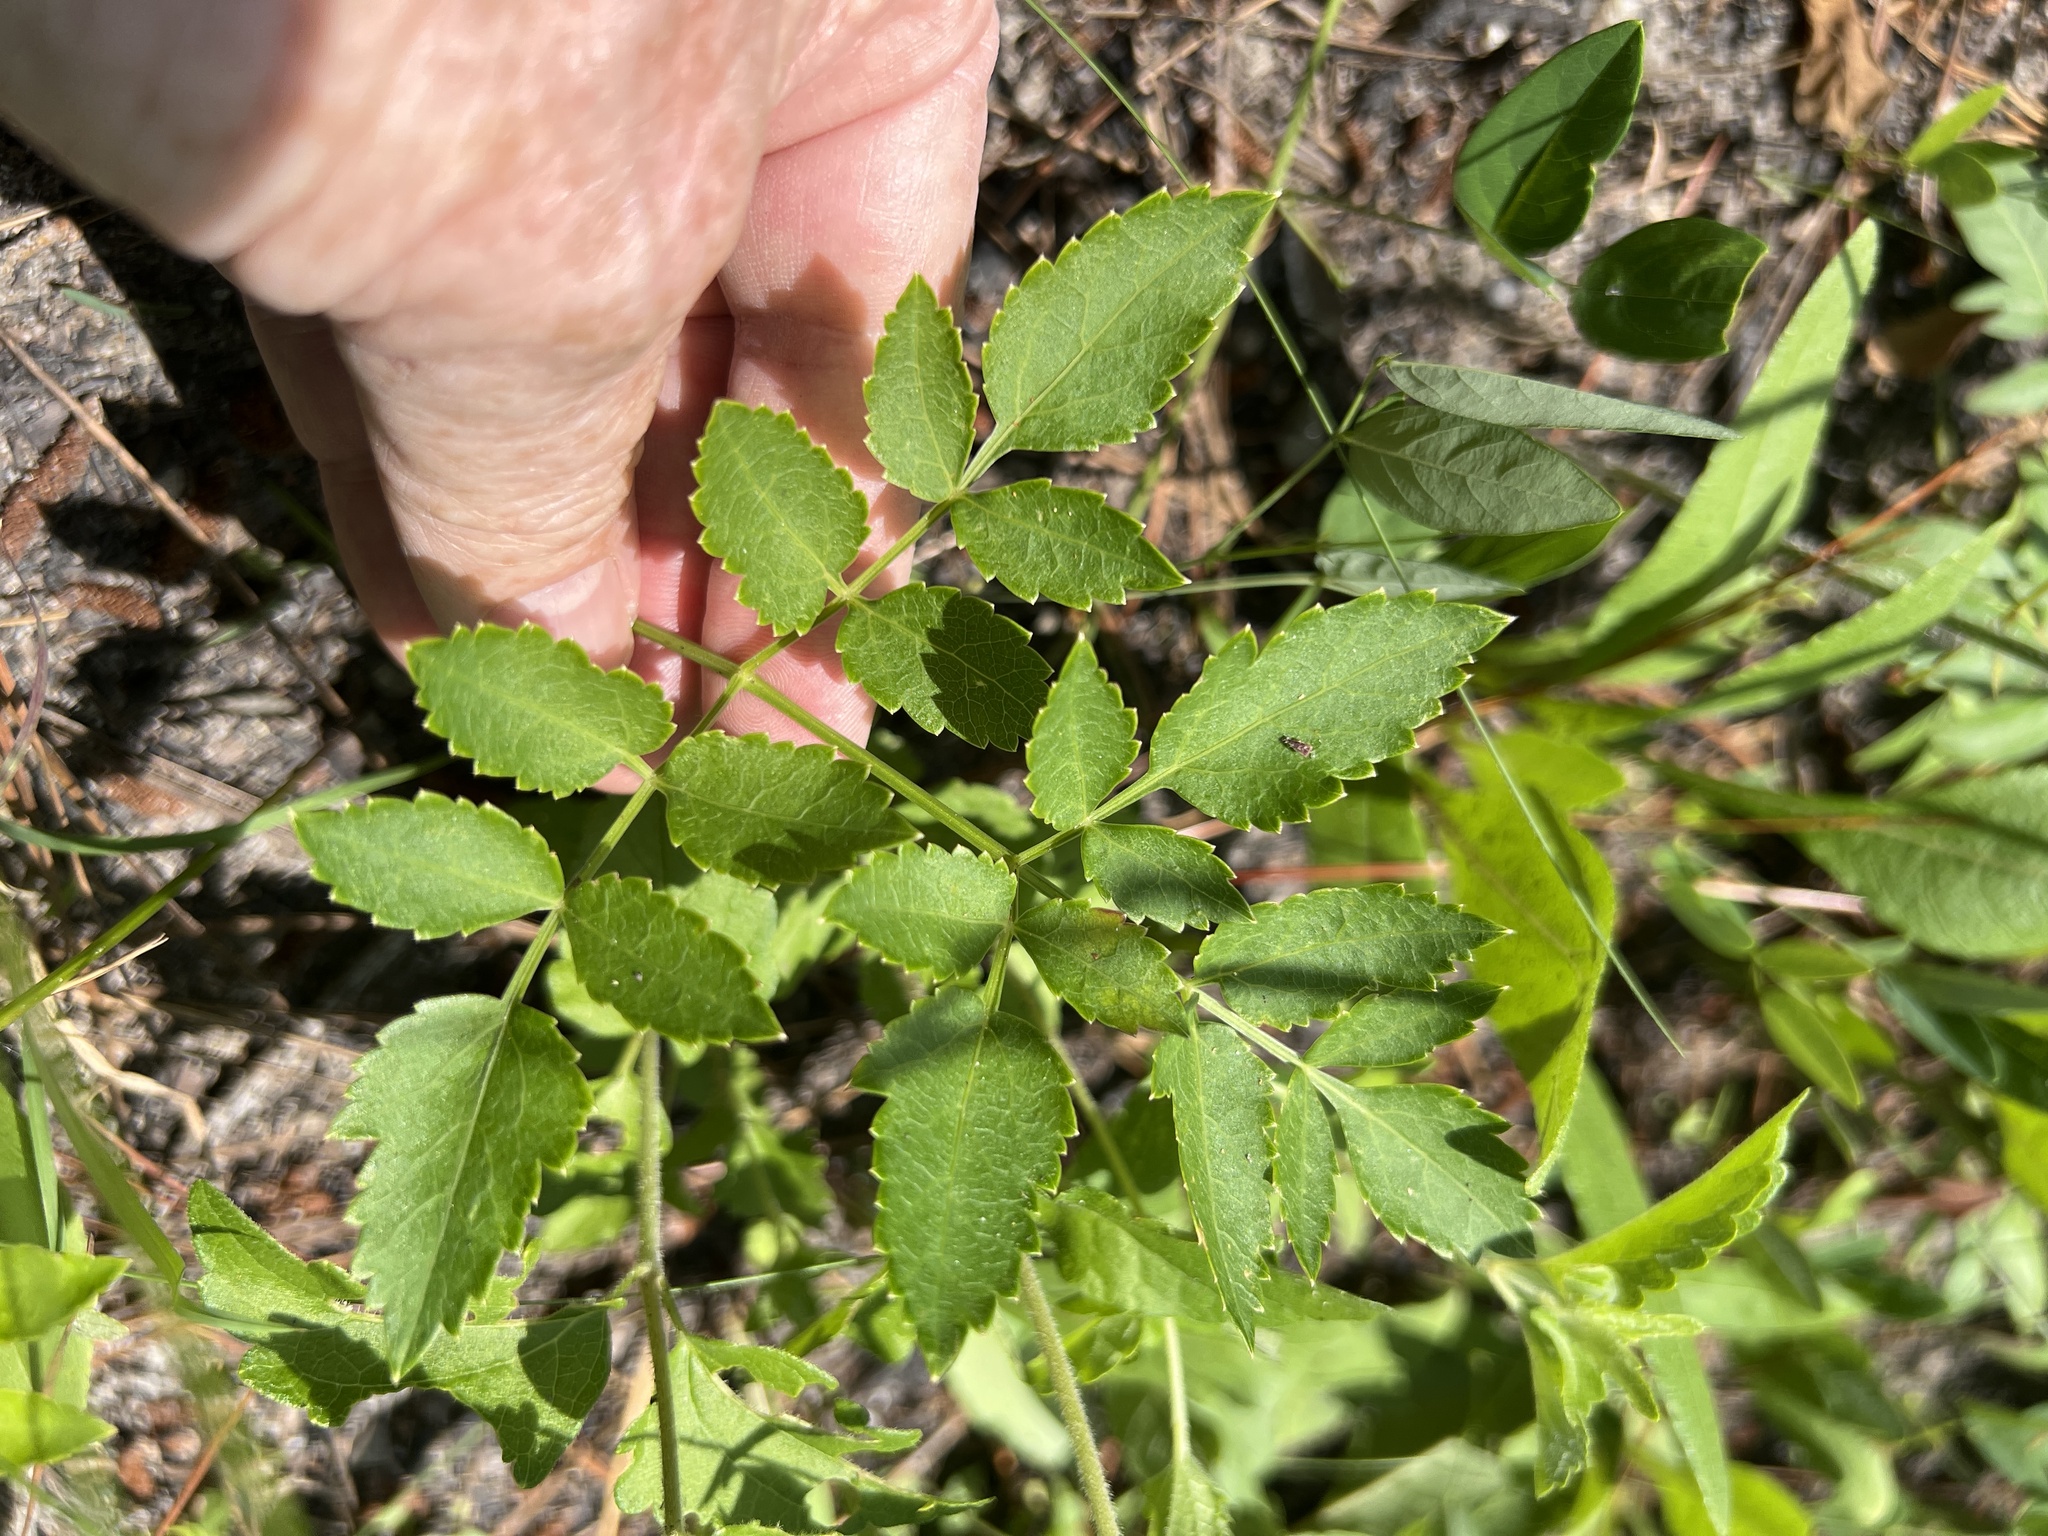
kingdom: Plantae
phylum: Tracheophyta
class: Magnoliopsida
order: Apiales
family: Apiaceae
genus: Angelica
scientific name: Angelica venenosa
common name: Hairy angelica
